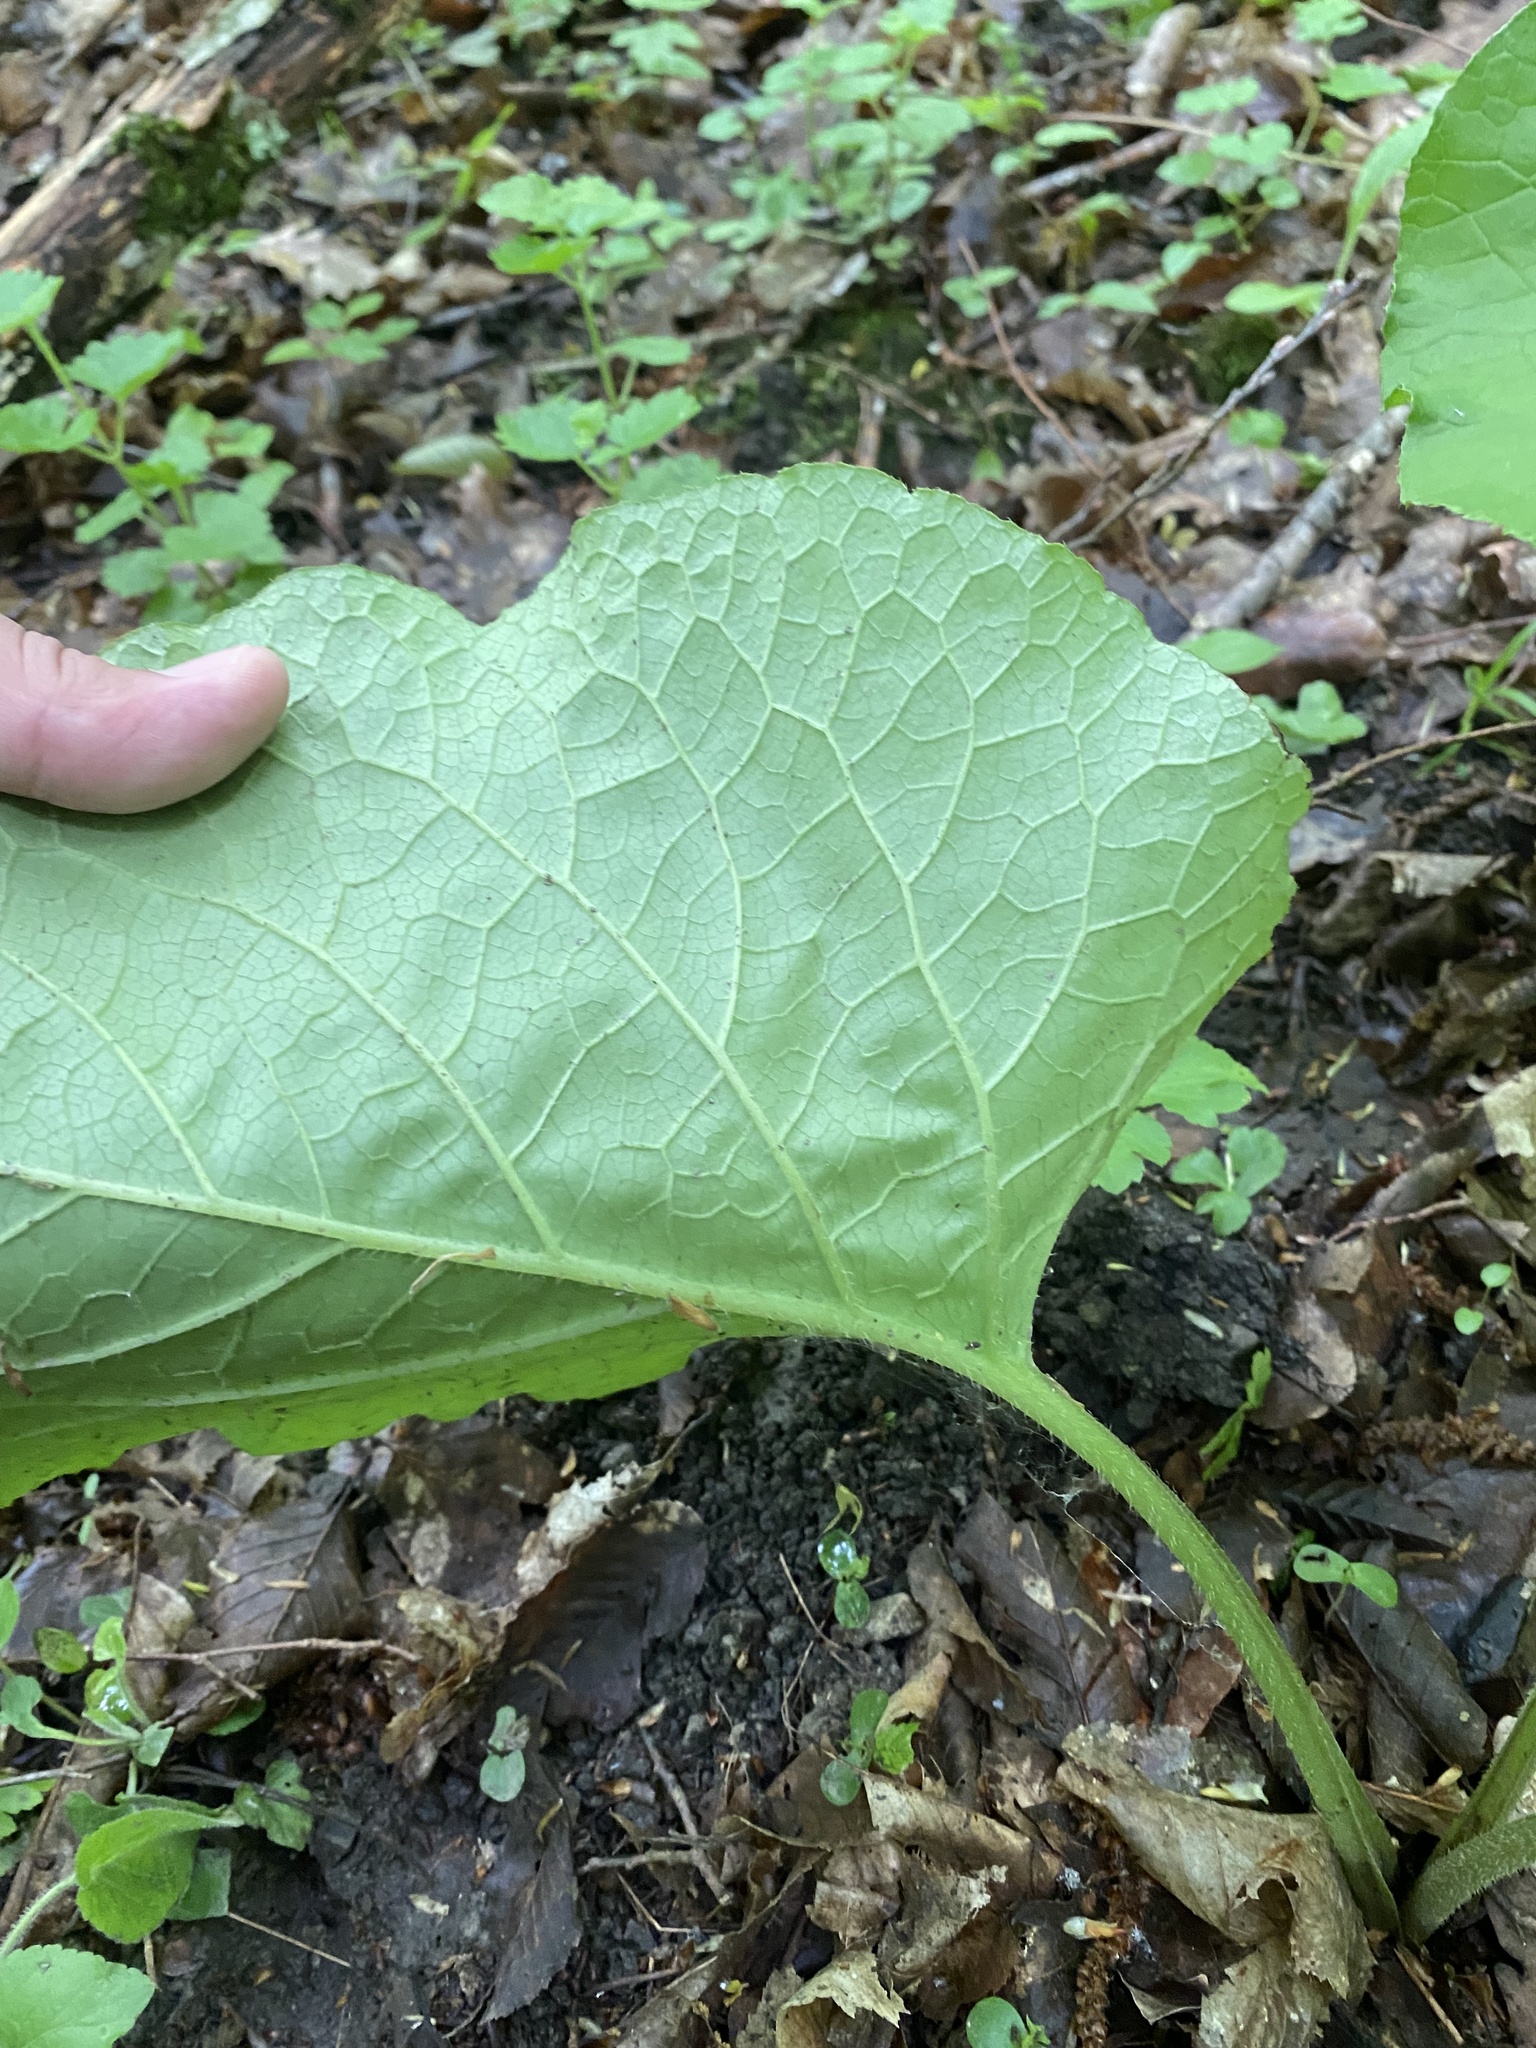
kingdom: Plantae
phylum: Tracheophyta
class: Magnoliopsida
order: Boraginales
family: Boraginaceae
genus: Trachystemon
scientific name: Trachystemon orientale
